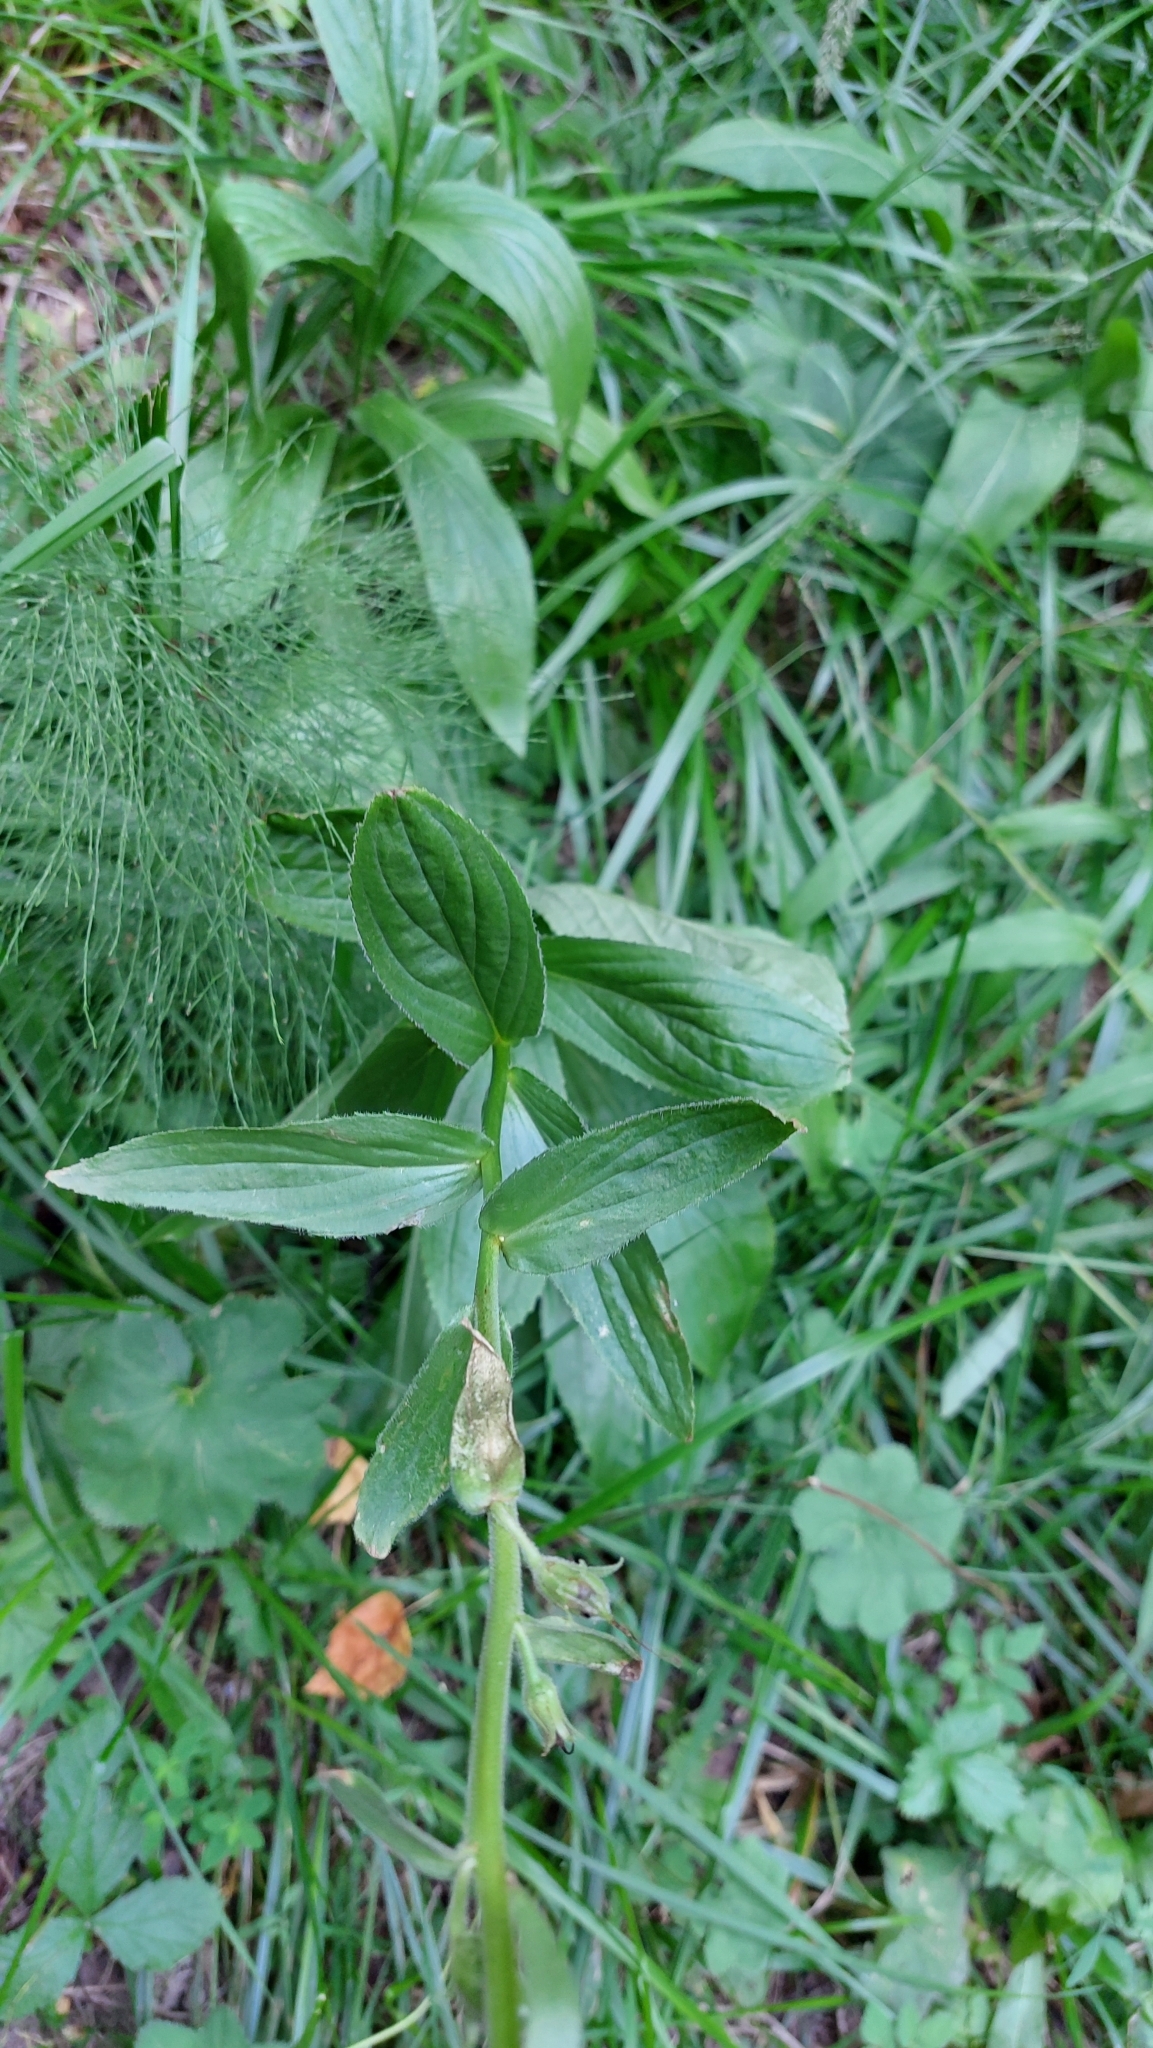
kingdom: Plantae
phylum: Tracheophyta
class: Magnoliopsida
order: Lamiales
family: Plantaginaceae
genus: Digitalis
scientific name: Digitalis grandiflora
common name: Yellow foxglove
